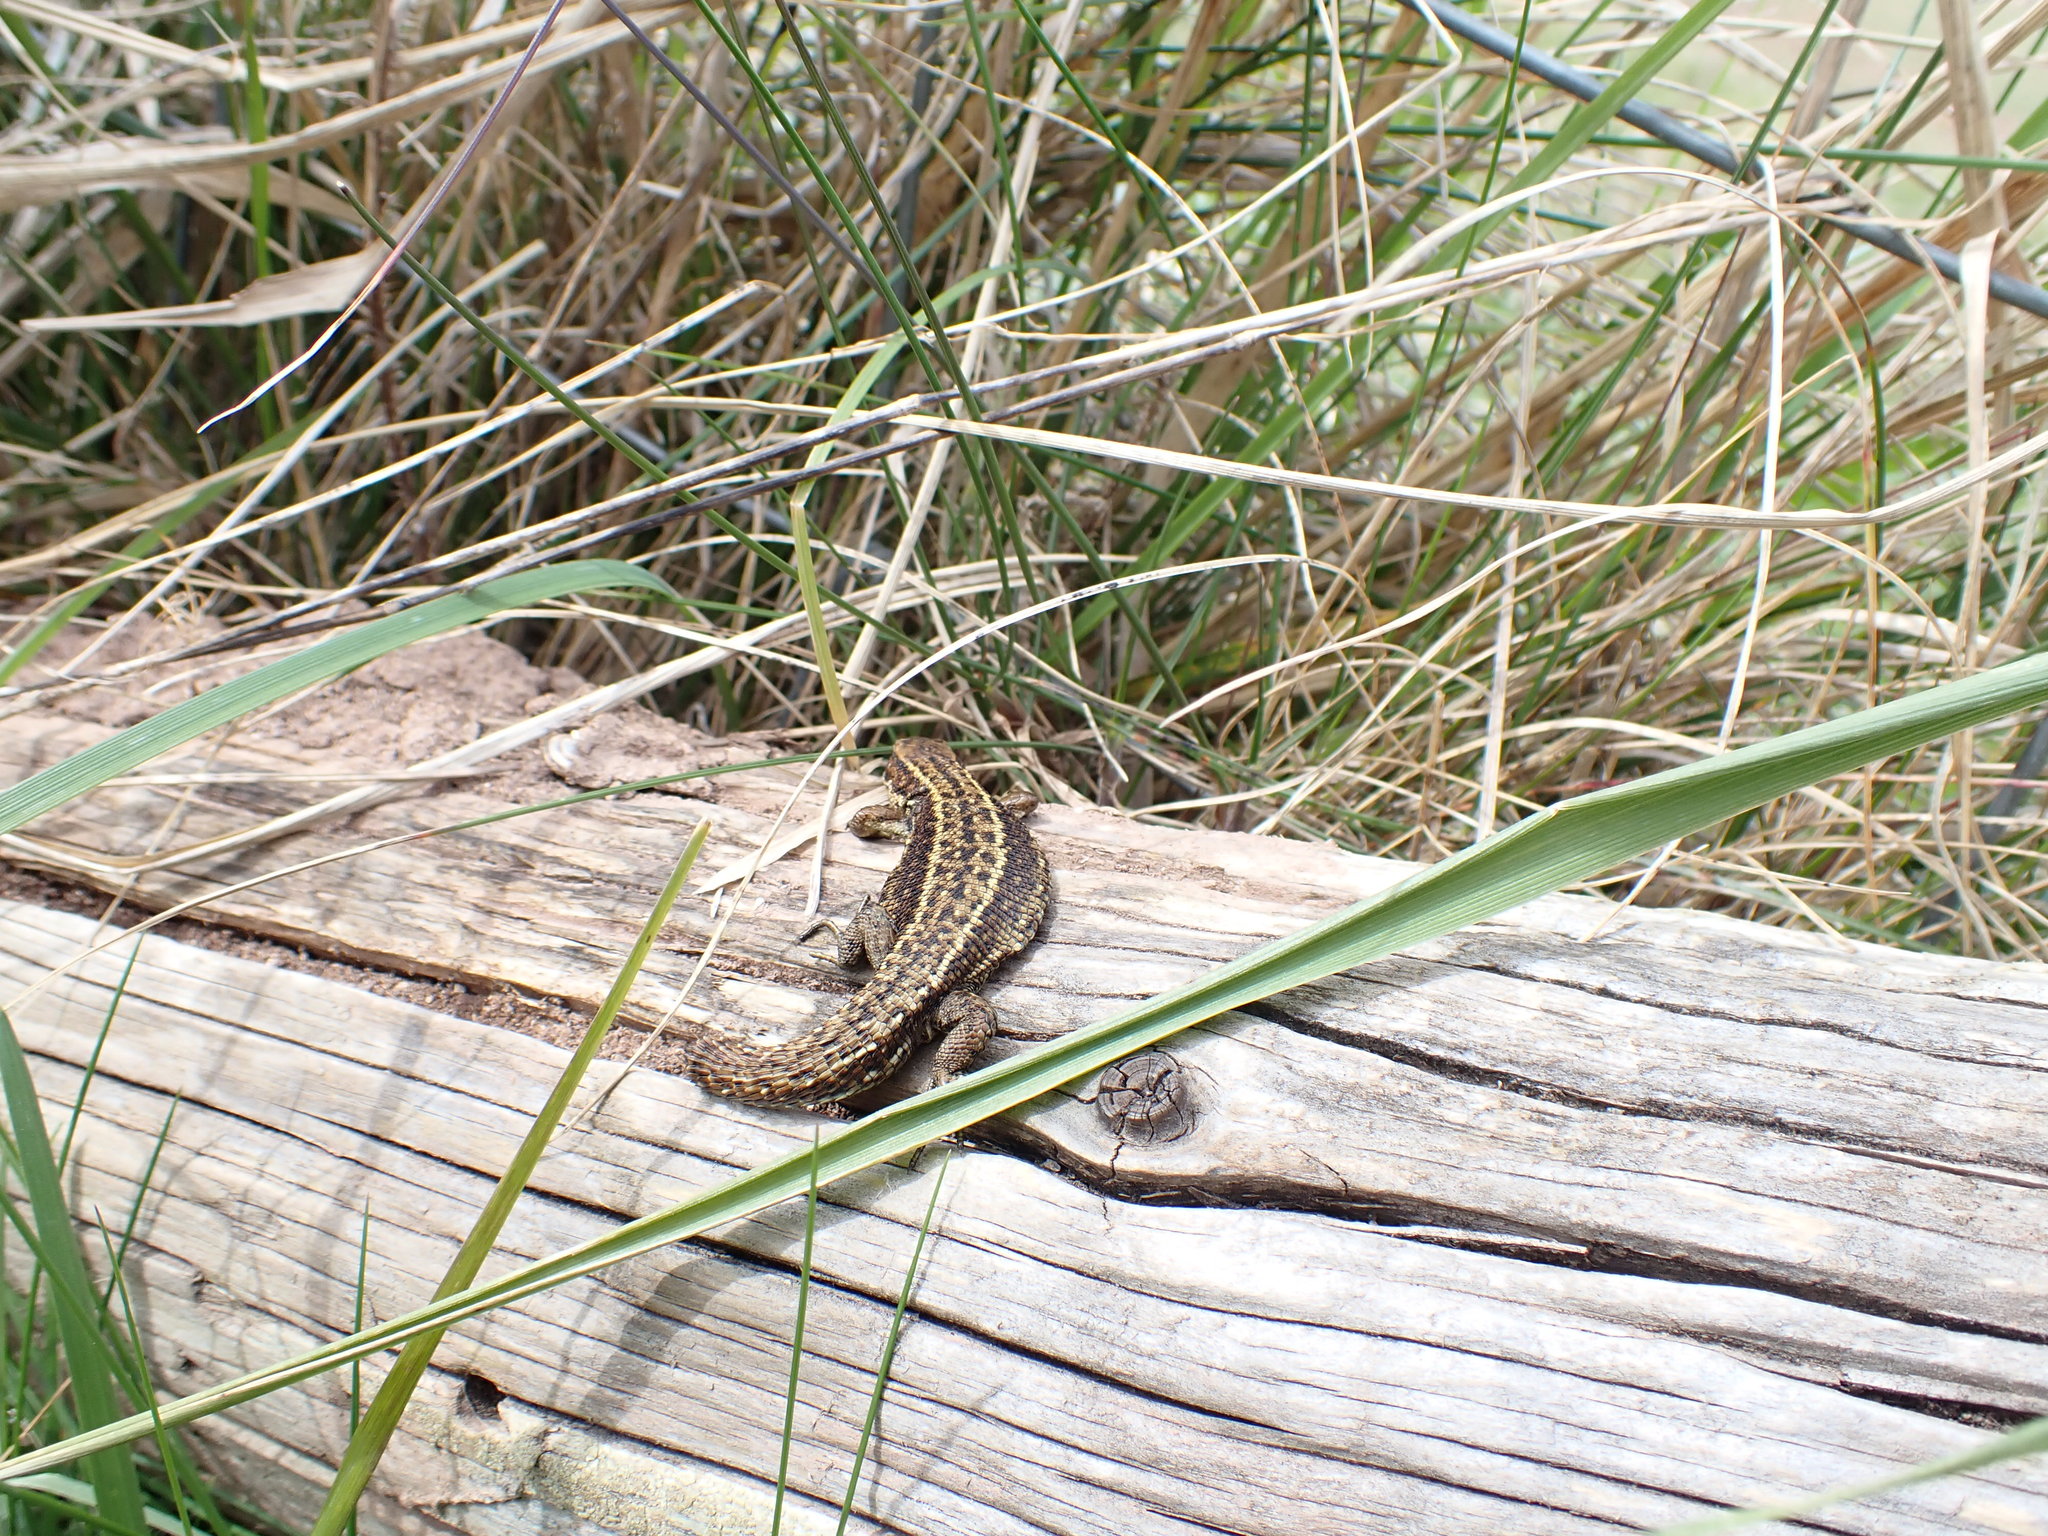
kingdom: Animalia
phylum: Chordata
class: Squamata
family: Lacertidae
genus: Zootoca
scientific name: Zootoca vivipara
